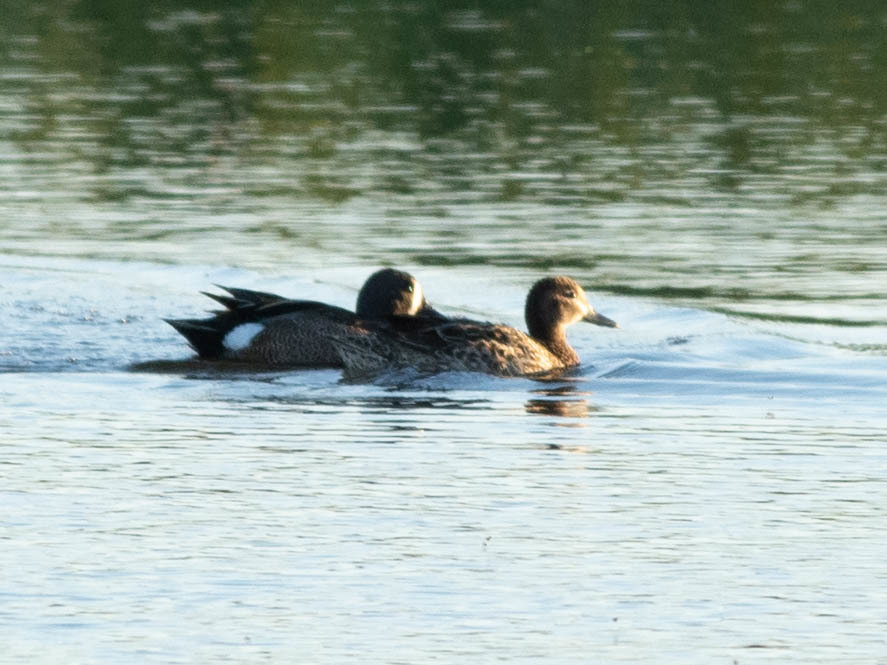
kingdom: Animalia
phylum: Chordata
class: Aves
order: Anseriformes
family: Anatidae
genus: Spatula
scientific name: Spatula discors
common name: Blue-winged teal
